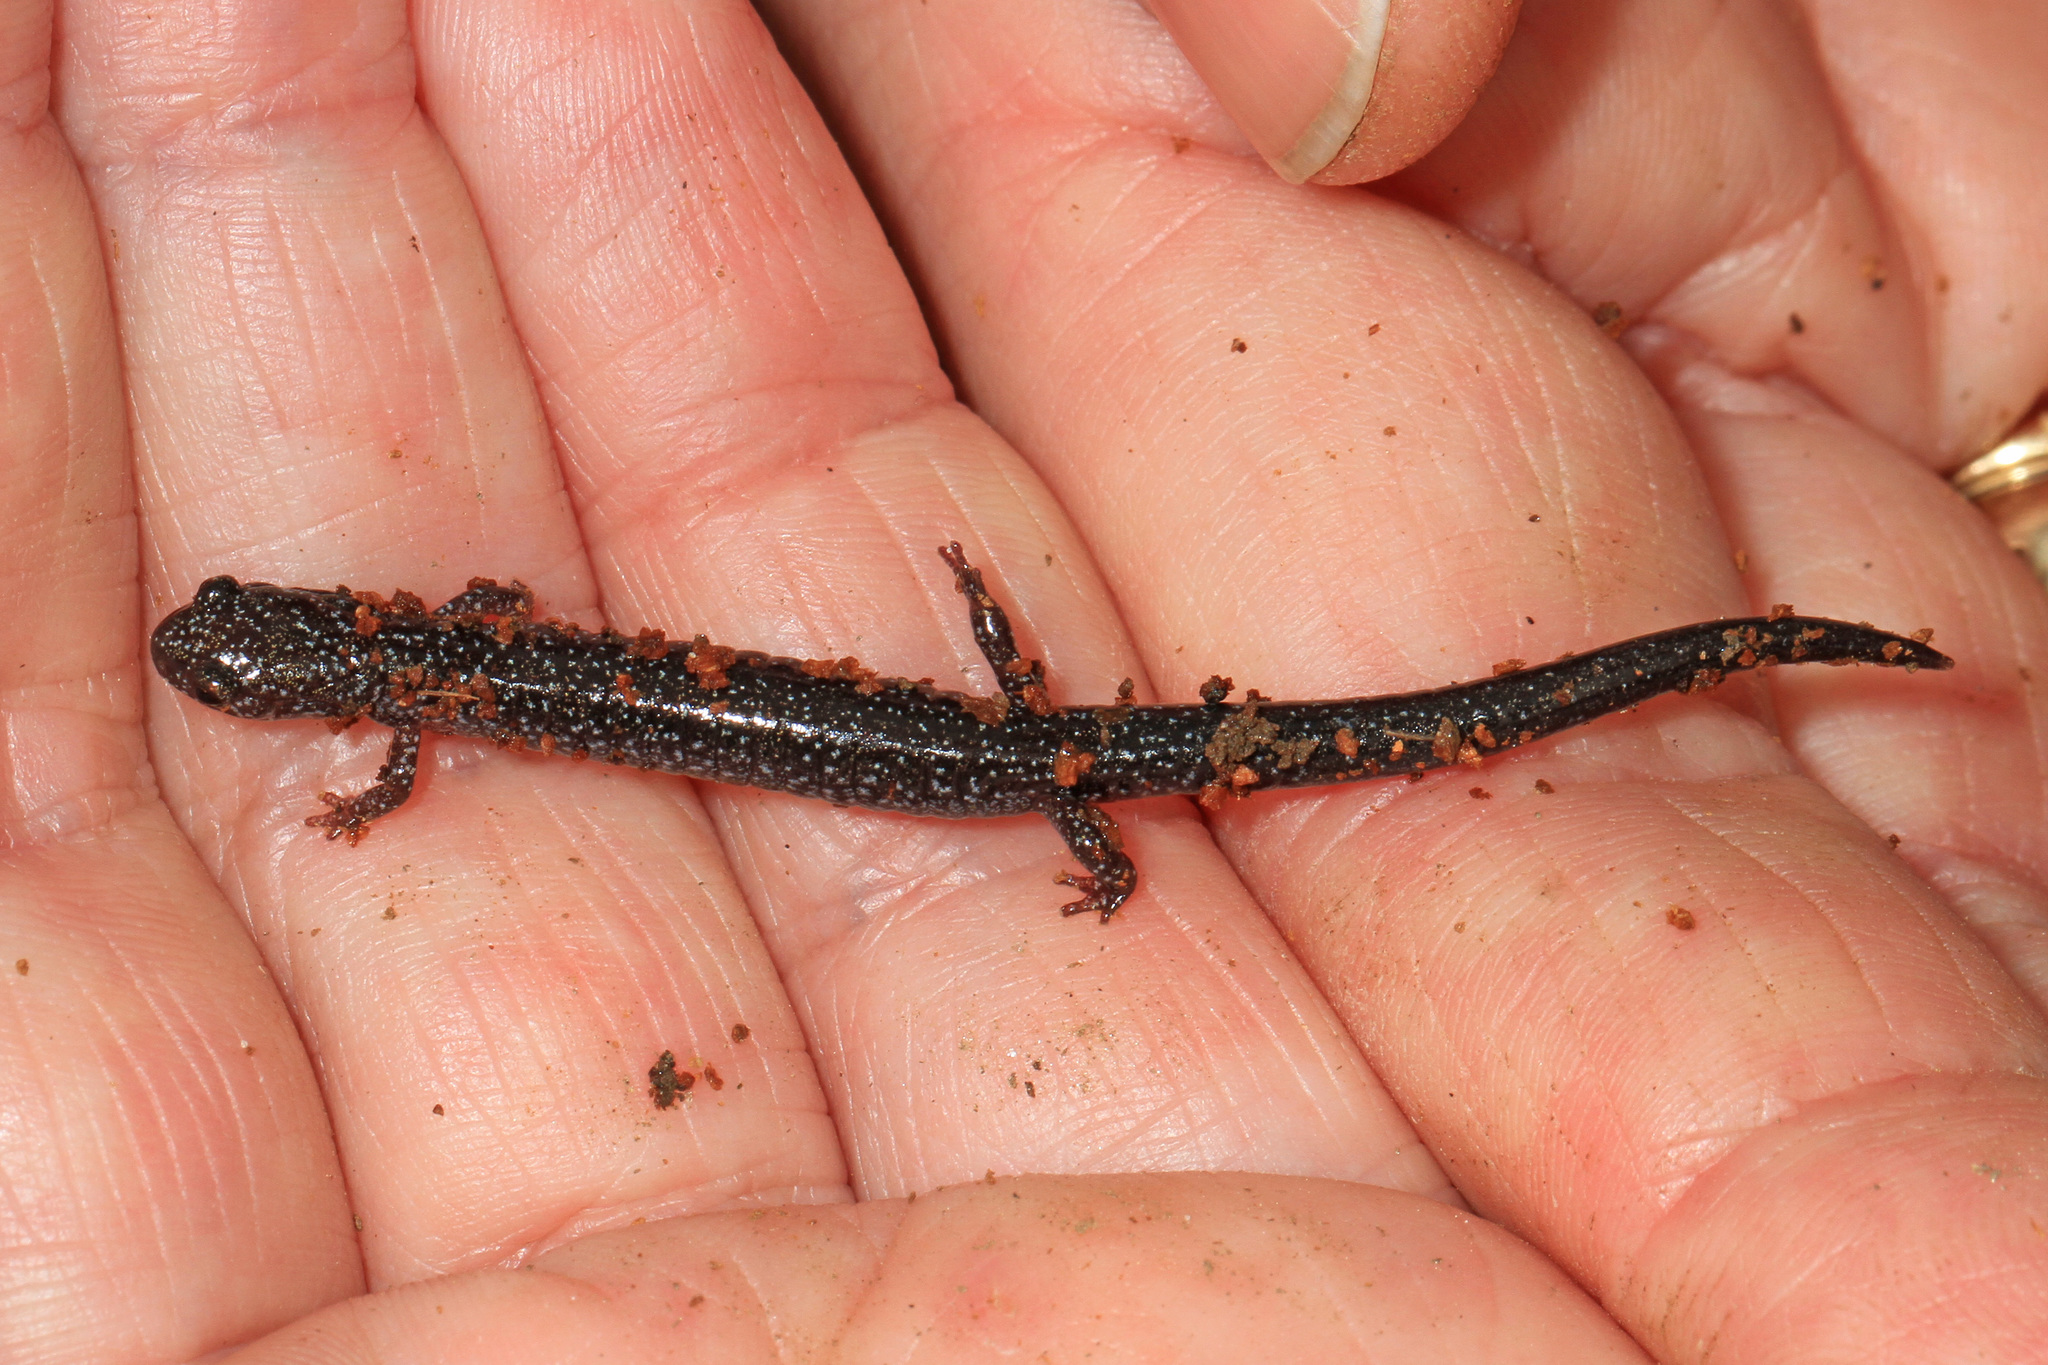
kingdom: Animalia
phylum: Chordata
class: Amphibia
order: Caudata
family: Plethodontidae
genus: Plethodon
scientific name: Plethodon cinereus
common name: Redback salamander
